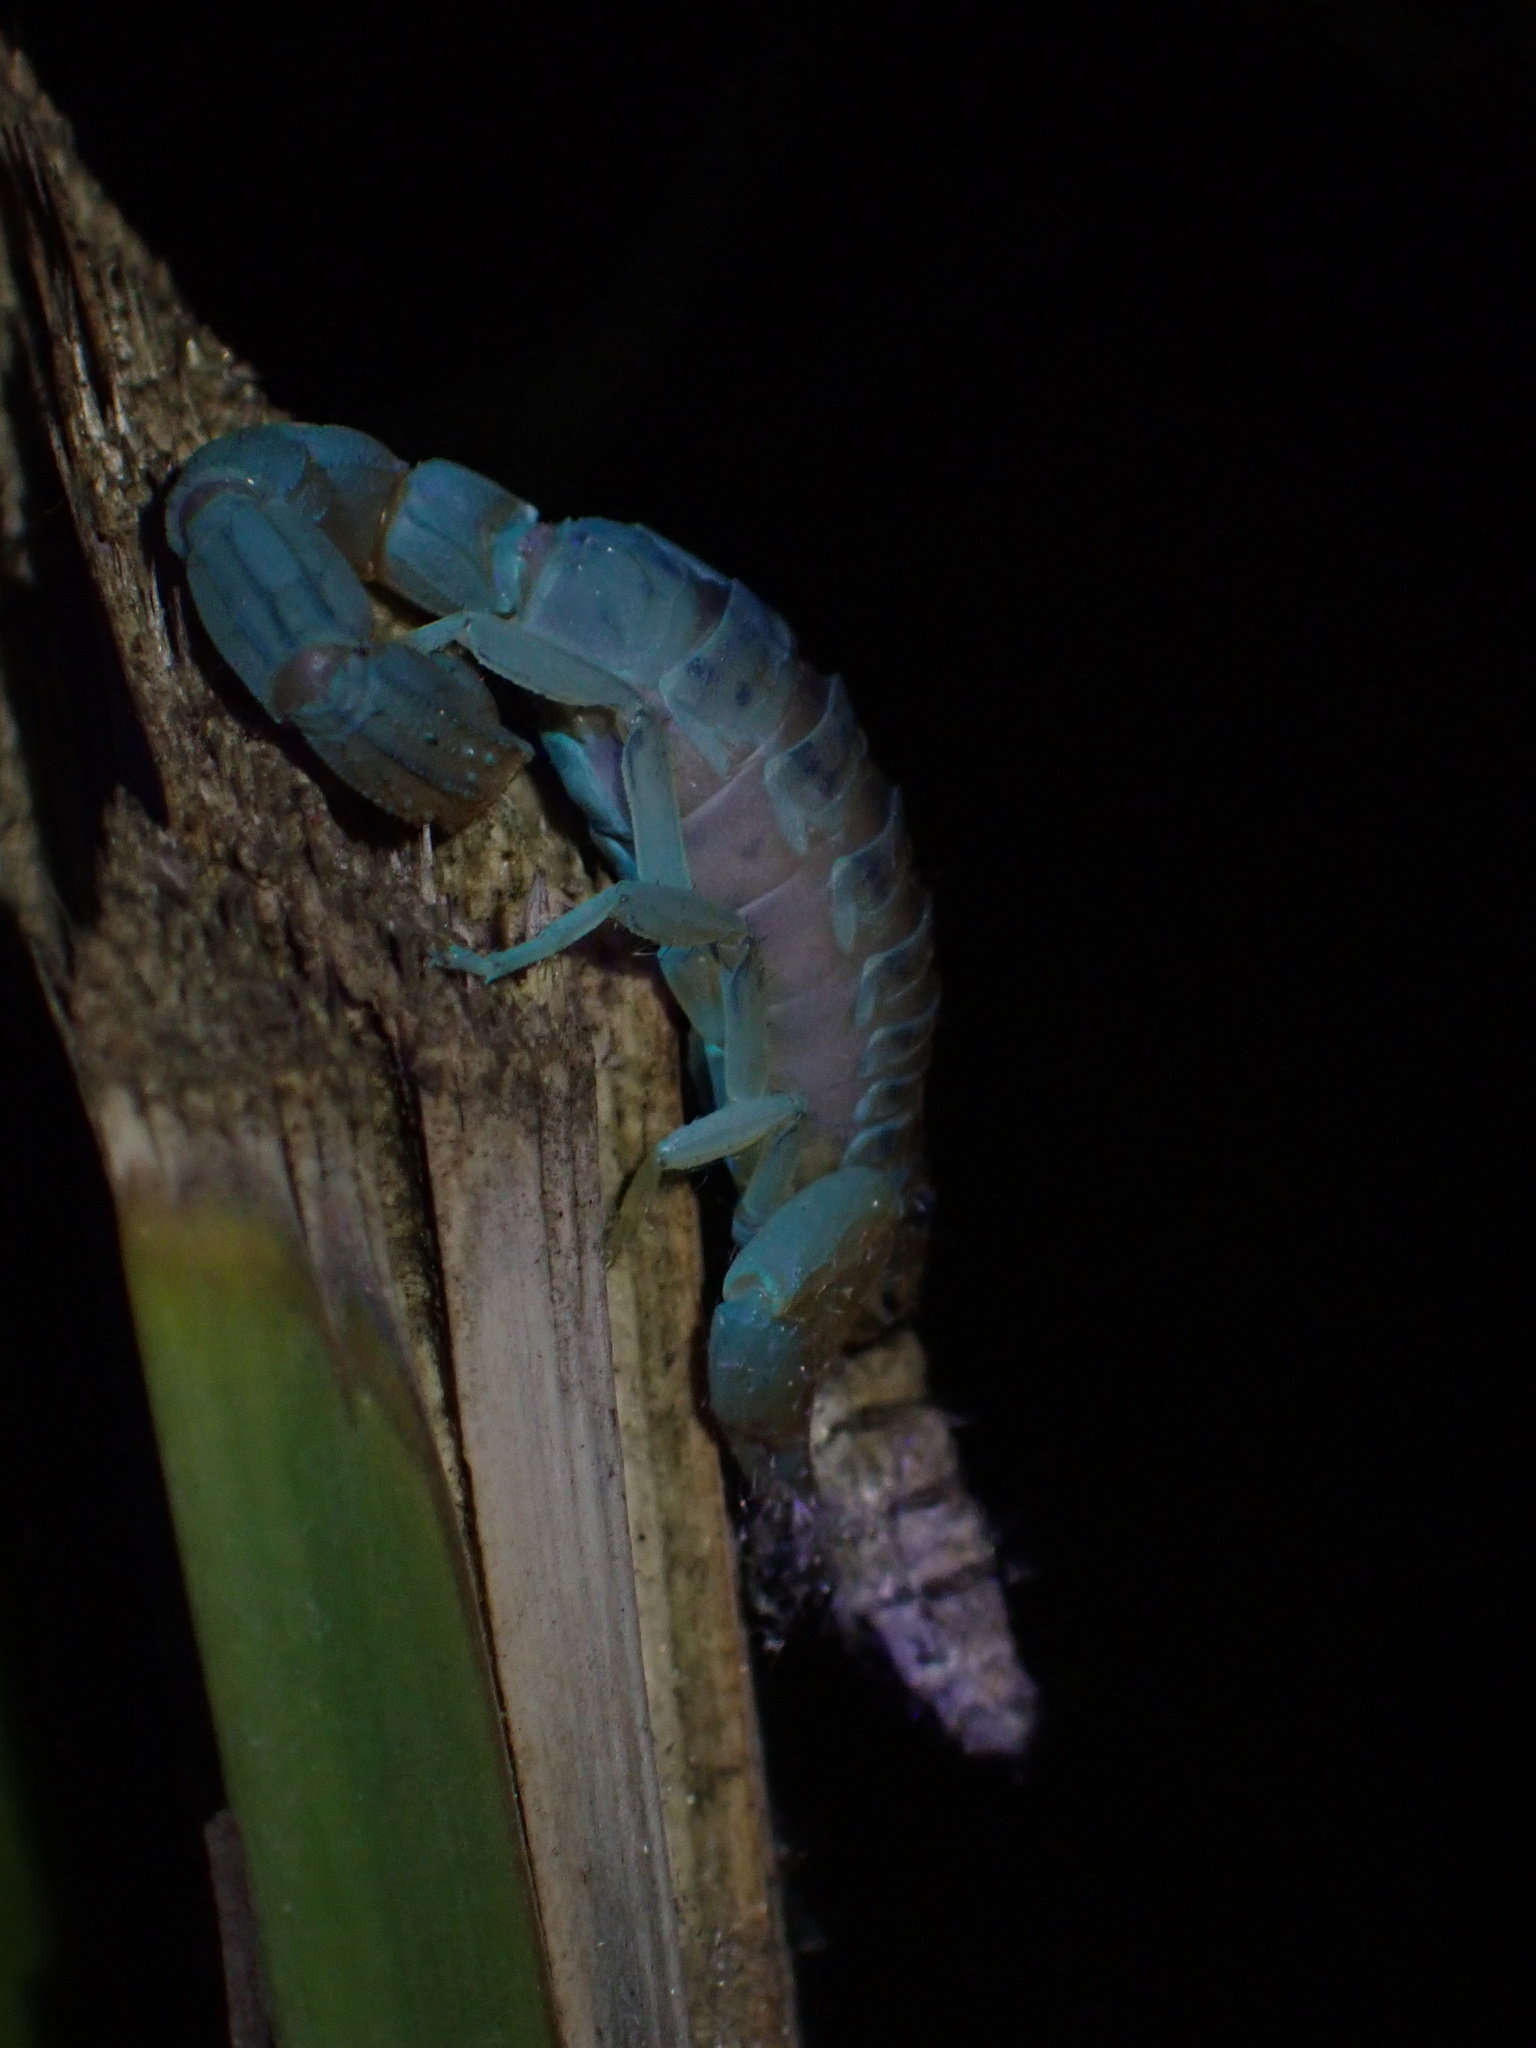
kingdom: Animalia
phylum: Arthropoda
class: Arachnida
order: Scorpiones
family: Buthidae
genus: Mesobuthus
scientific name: Mesobuthus mirshamsii
